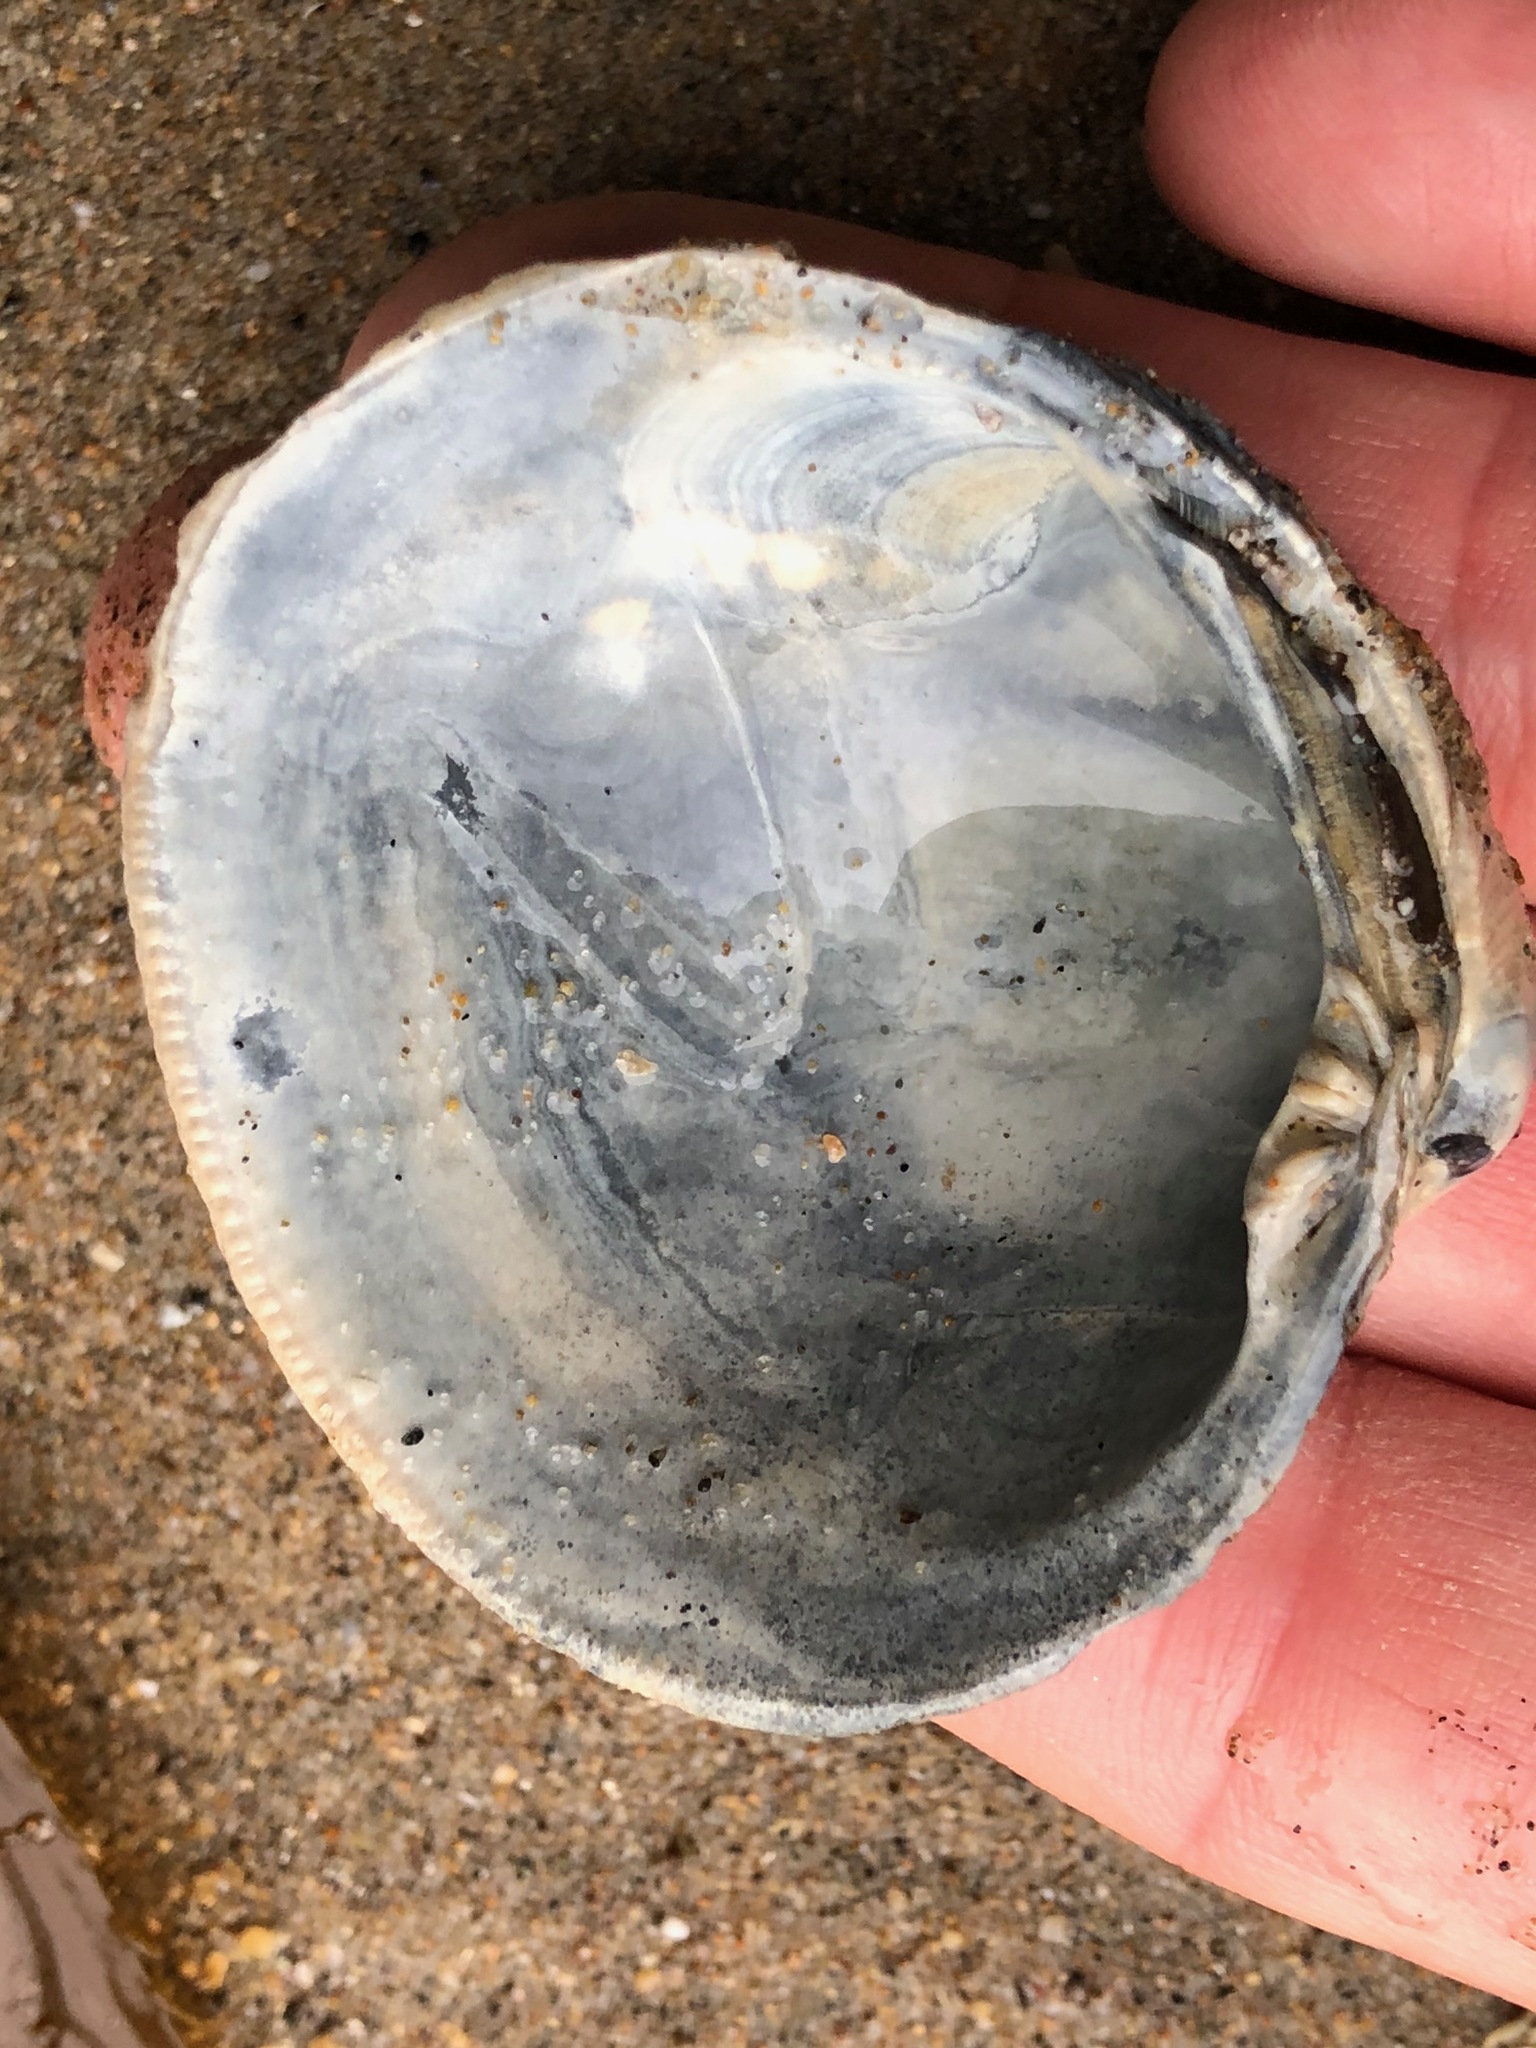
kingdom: Animalia
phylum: Mollusca
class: Bivalvia
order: Venerida
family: Veneridae
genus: Leukoma
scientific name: Leukoma staminea
